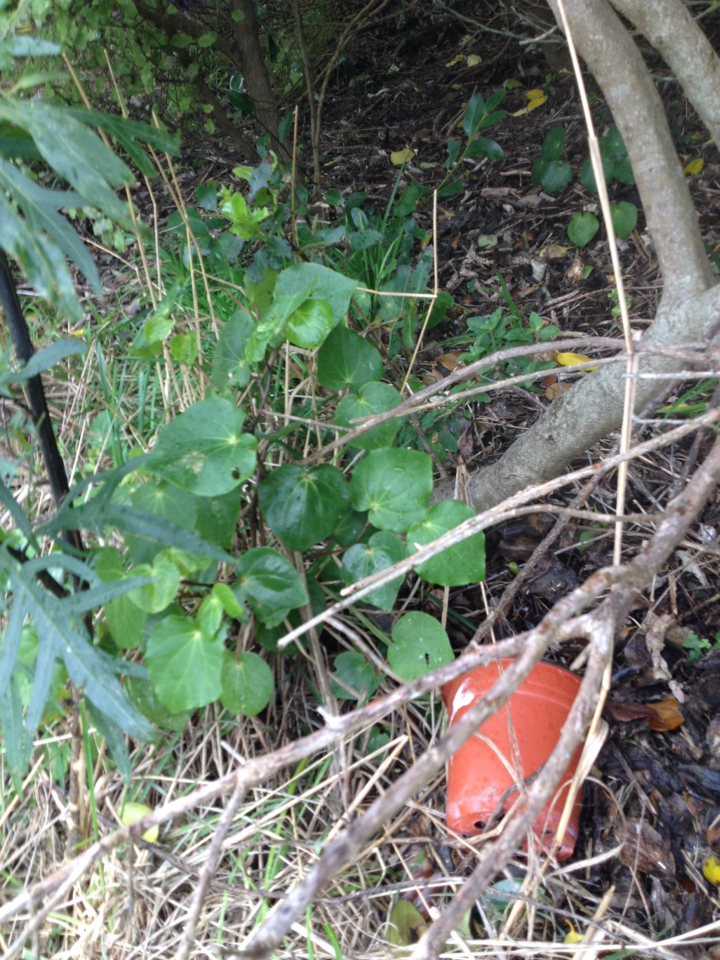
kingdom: Plantae
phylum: Tracheophyta
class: Magnoliopsida
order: Piperales
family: Piperaceae
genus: Macropiper
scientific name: Macropiper excelsum
